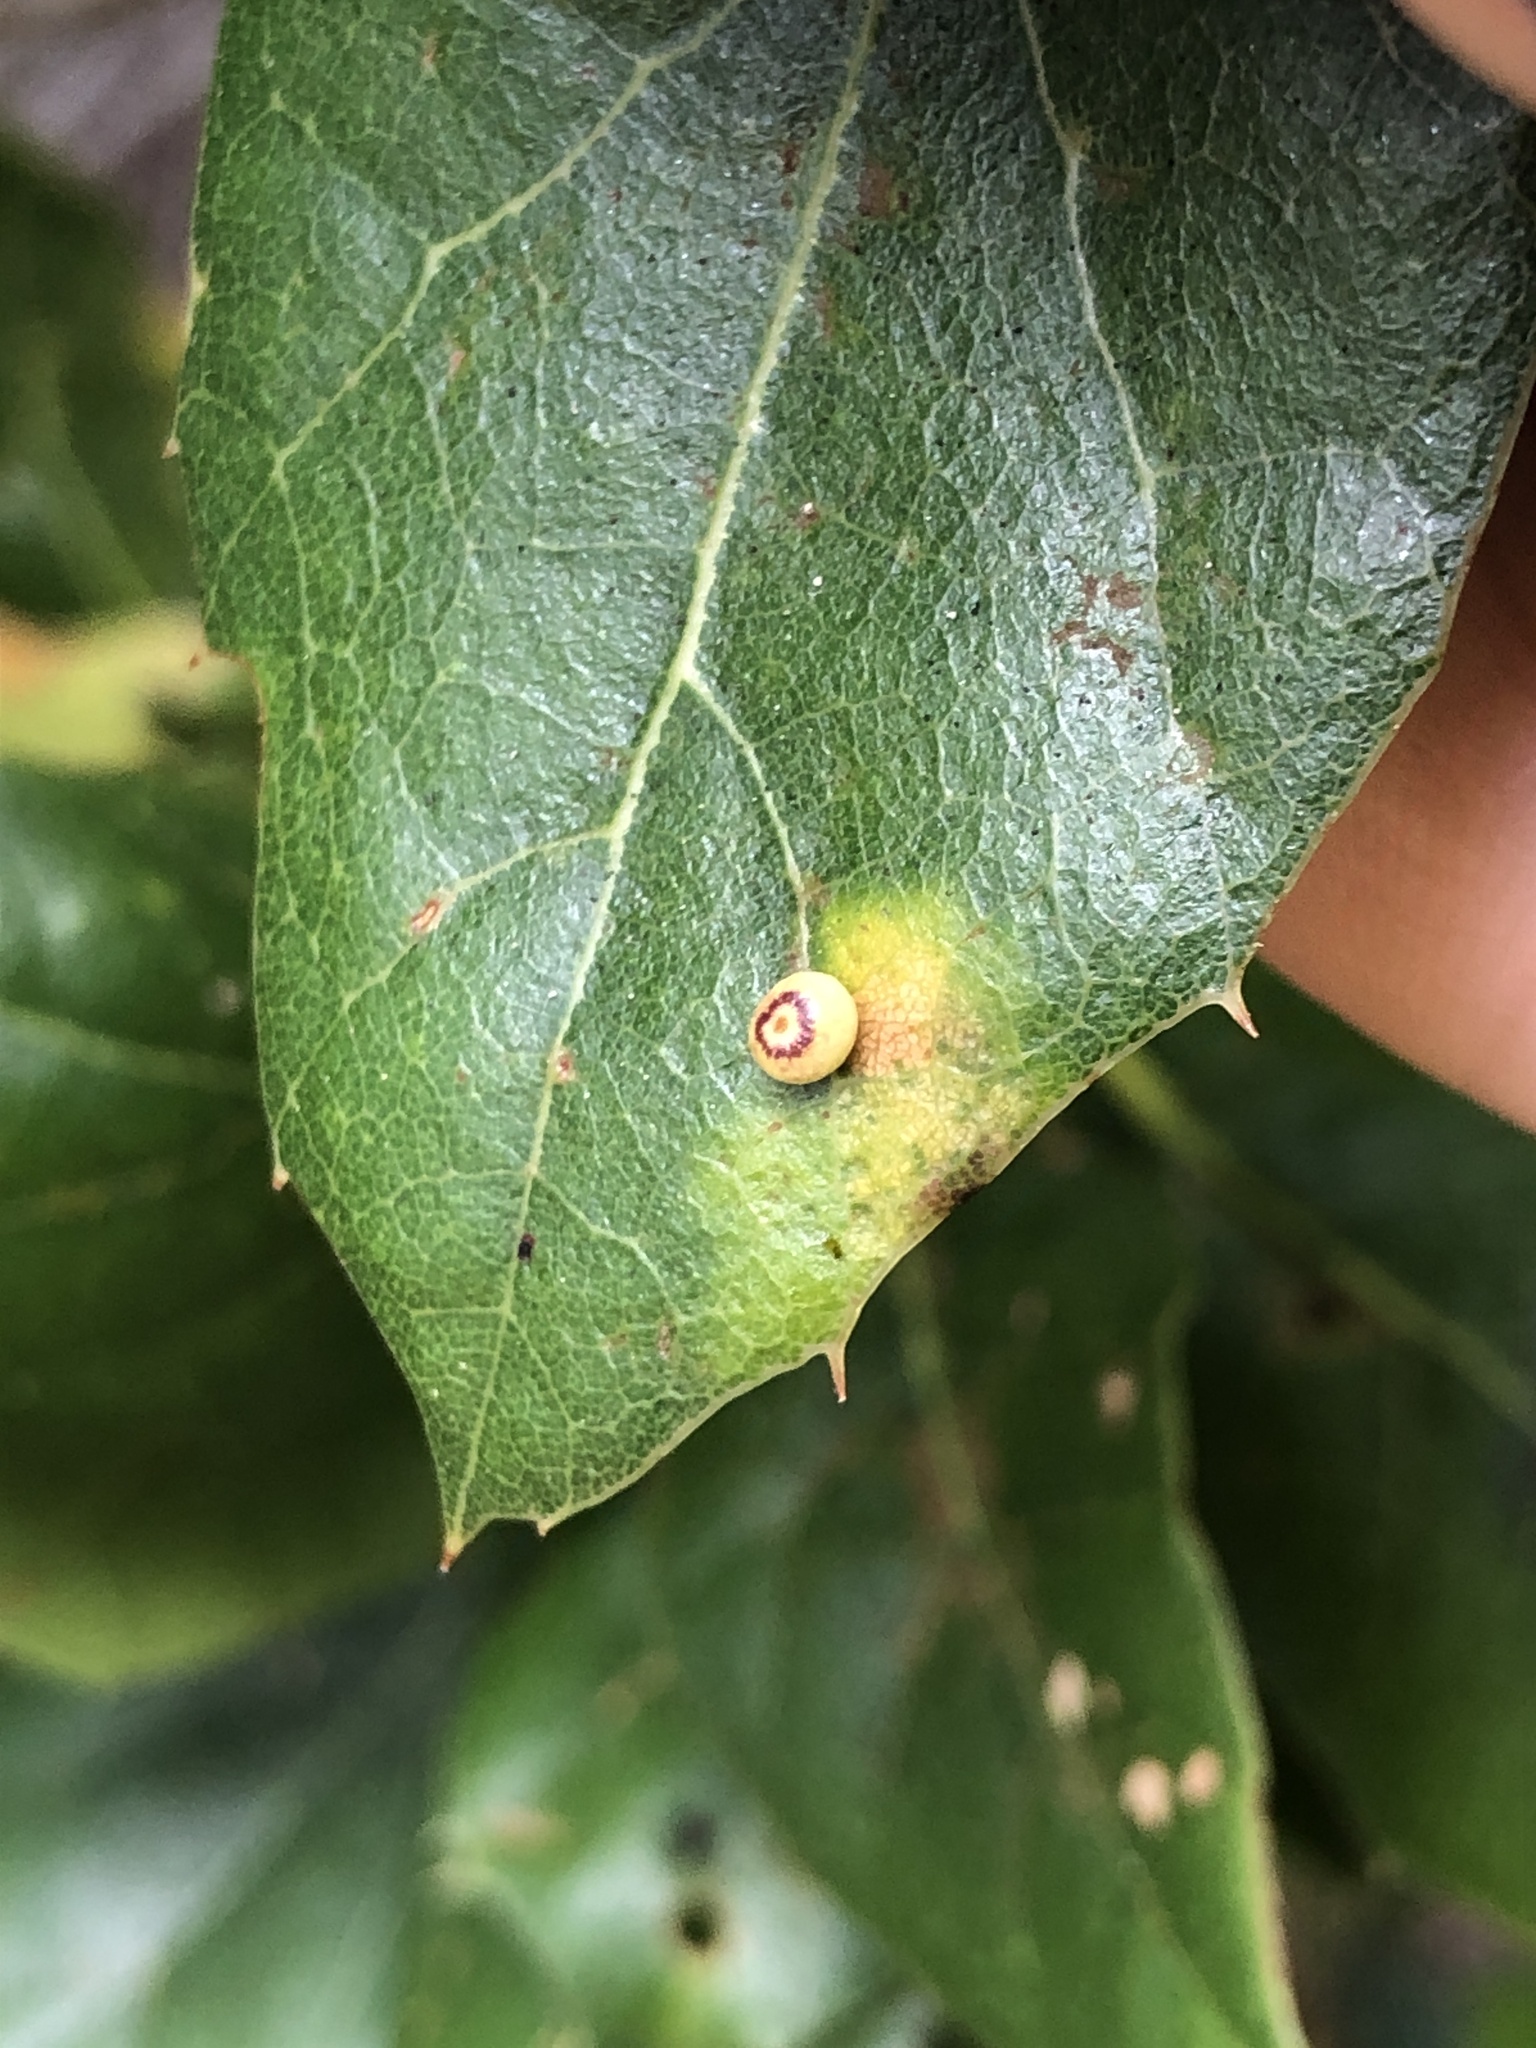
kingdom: Animalia
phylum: Arthropoda
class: Insecta
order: Hymenoptera
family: Cynipidae
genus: Dryocosmus
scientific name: Dryocosmus
